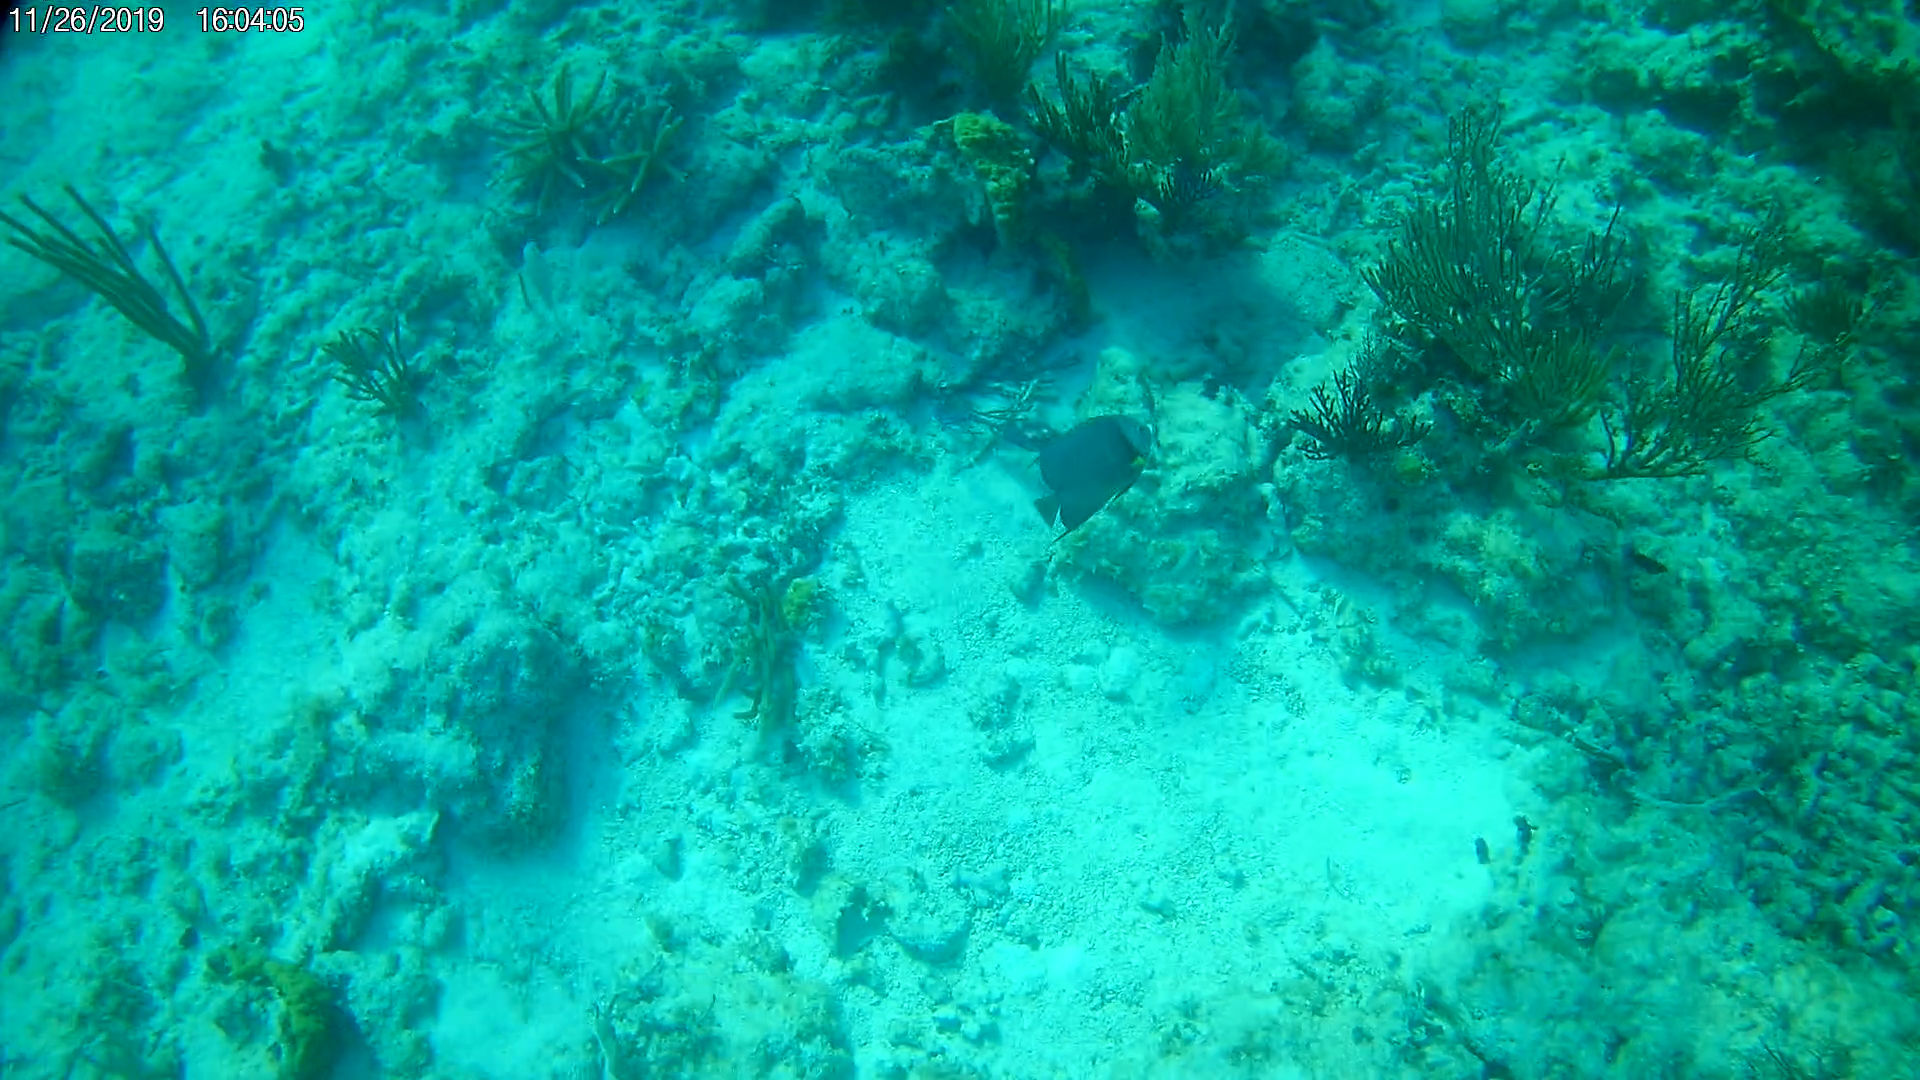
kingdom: Animalia
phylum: Chordata
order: Perciformes
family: Pomacanthidae
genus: Pomacanthus
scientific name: Pomacanthus arcuatus
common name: Gray angelfish
